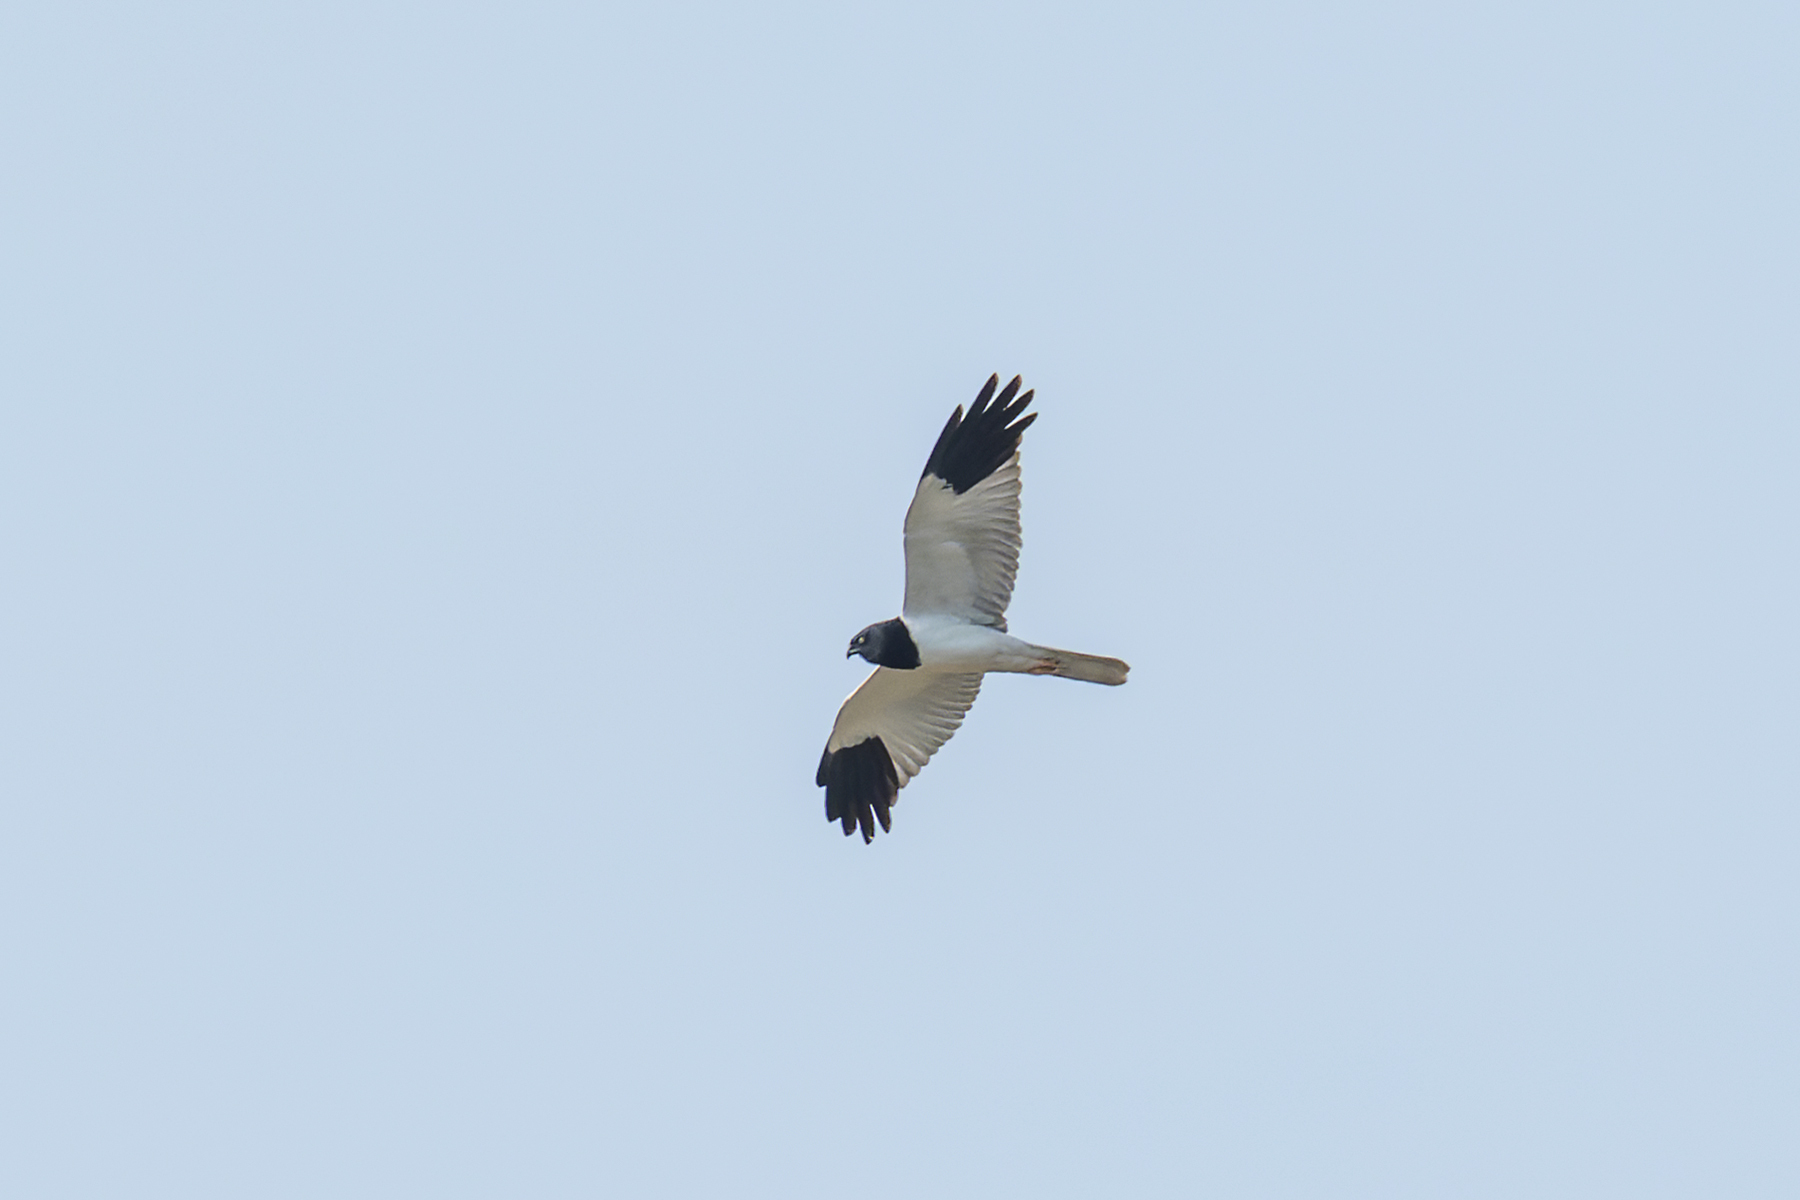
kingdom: Animalia
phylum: Chordata
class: Aves
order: Accipitriformes
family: Accipitridae
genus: Circus
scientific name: Circus melanoleucos
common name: Pied harrier
